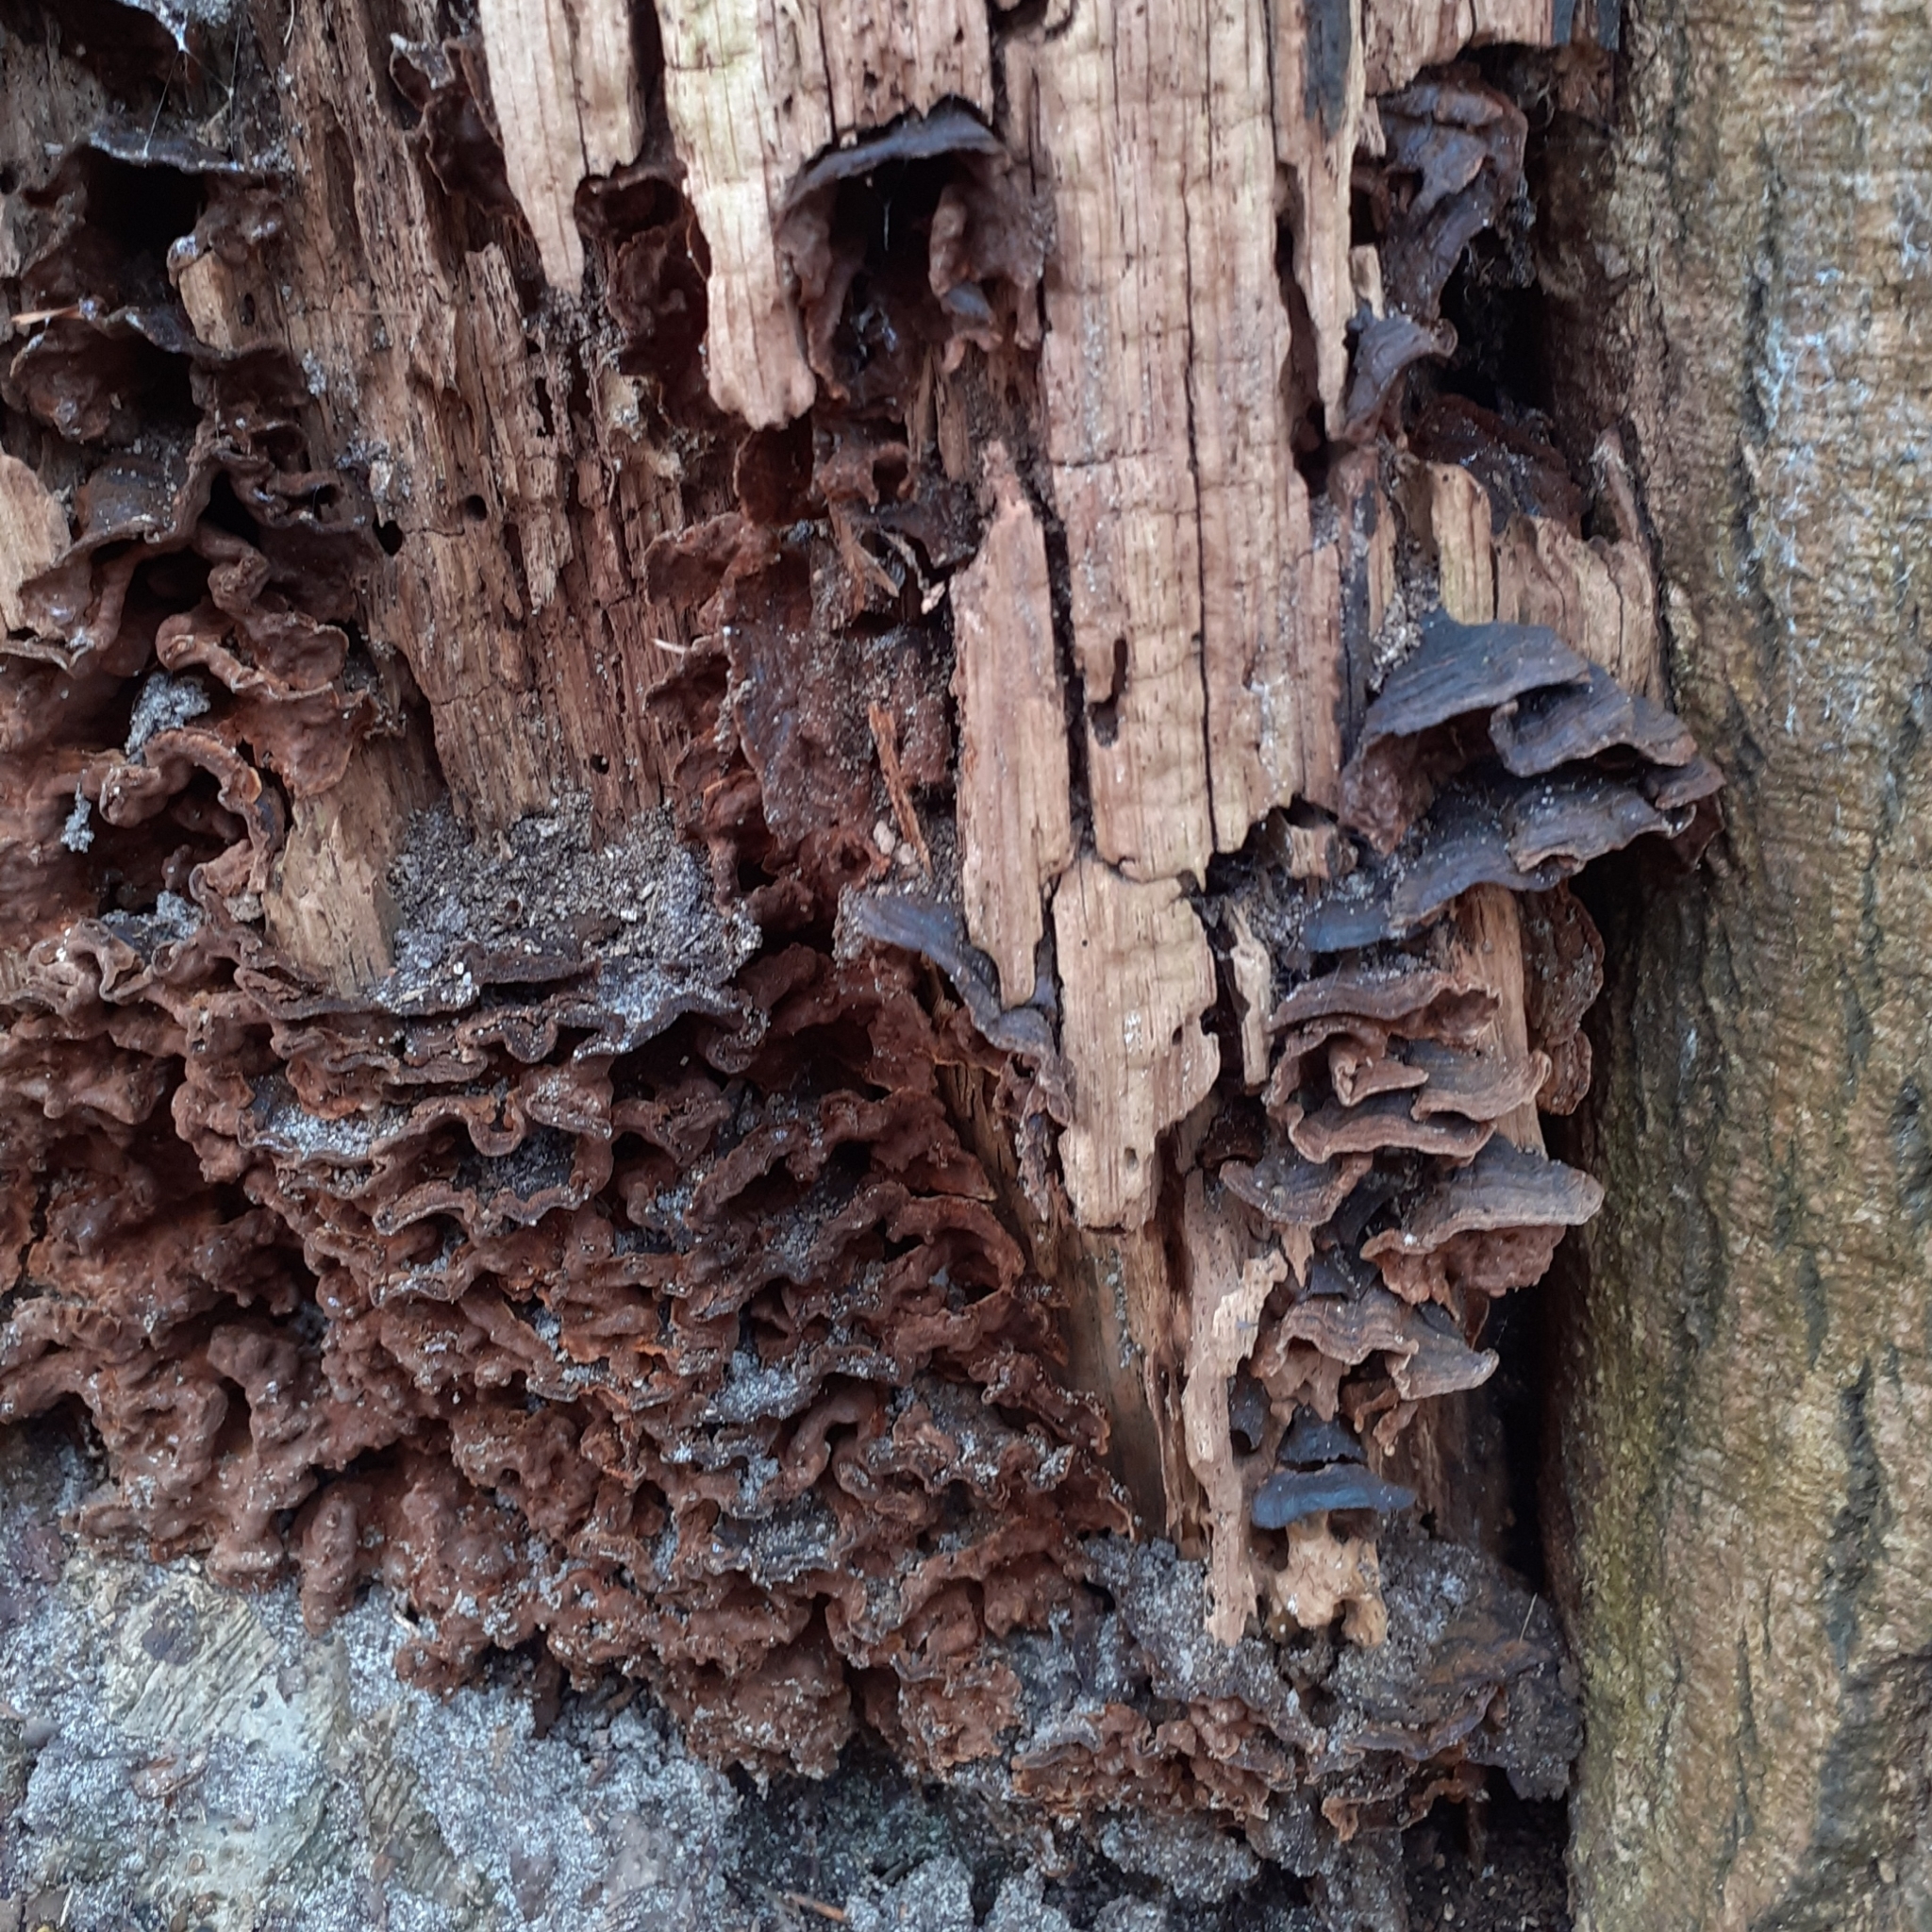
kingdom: Fungi
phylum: Basidiomycota
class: Agaricomycetes
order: Hymenochaetales
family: Hymenochaetaceae
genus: Hymenochaete
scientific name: Hymenochaete rubiginosa
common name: Oak curtain crust
